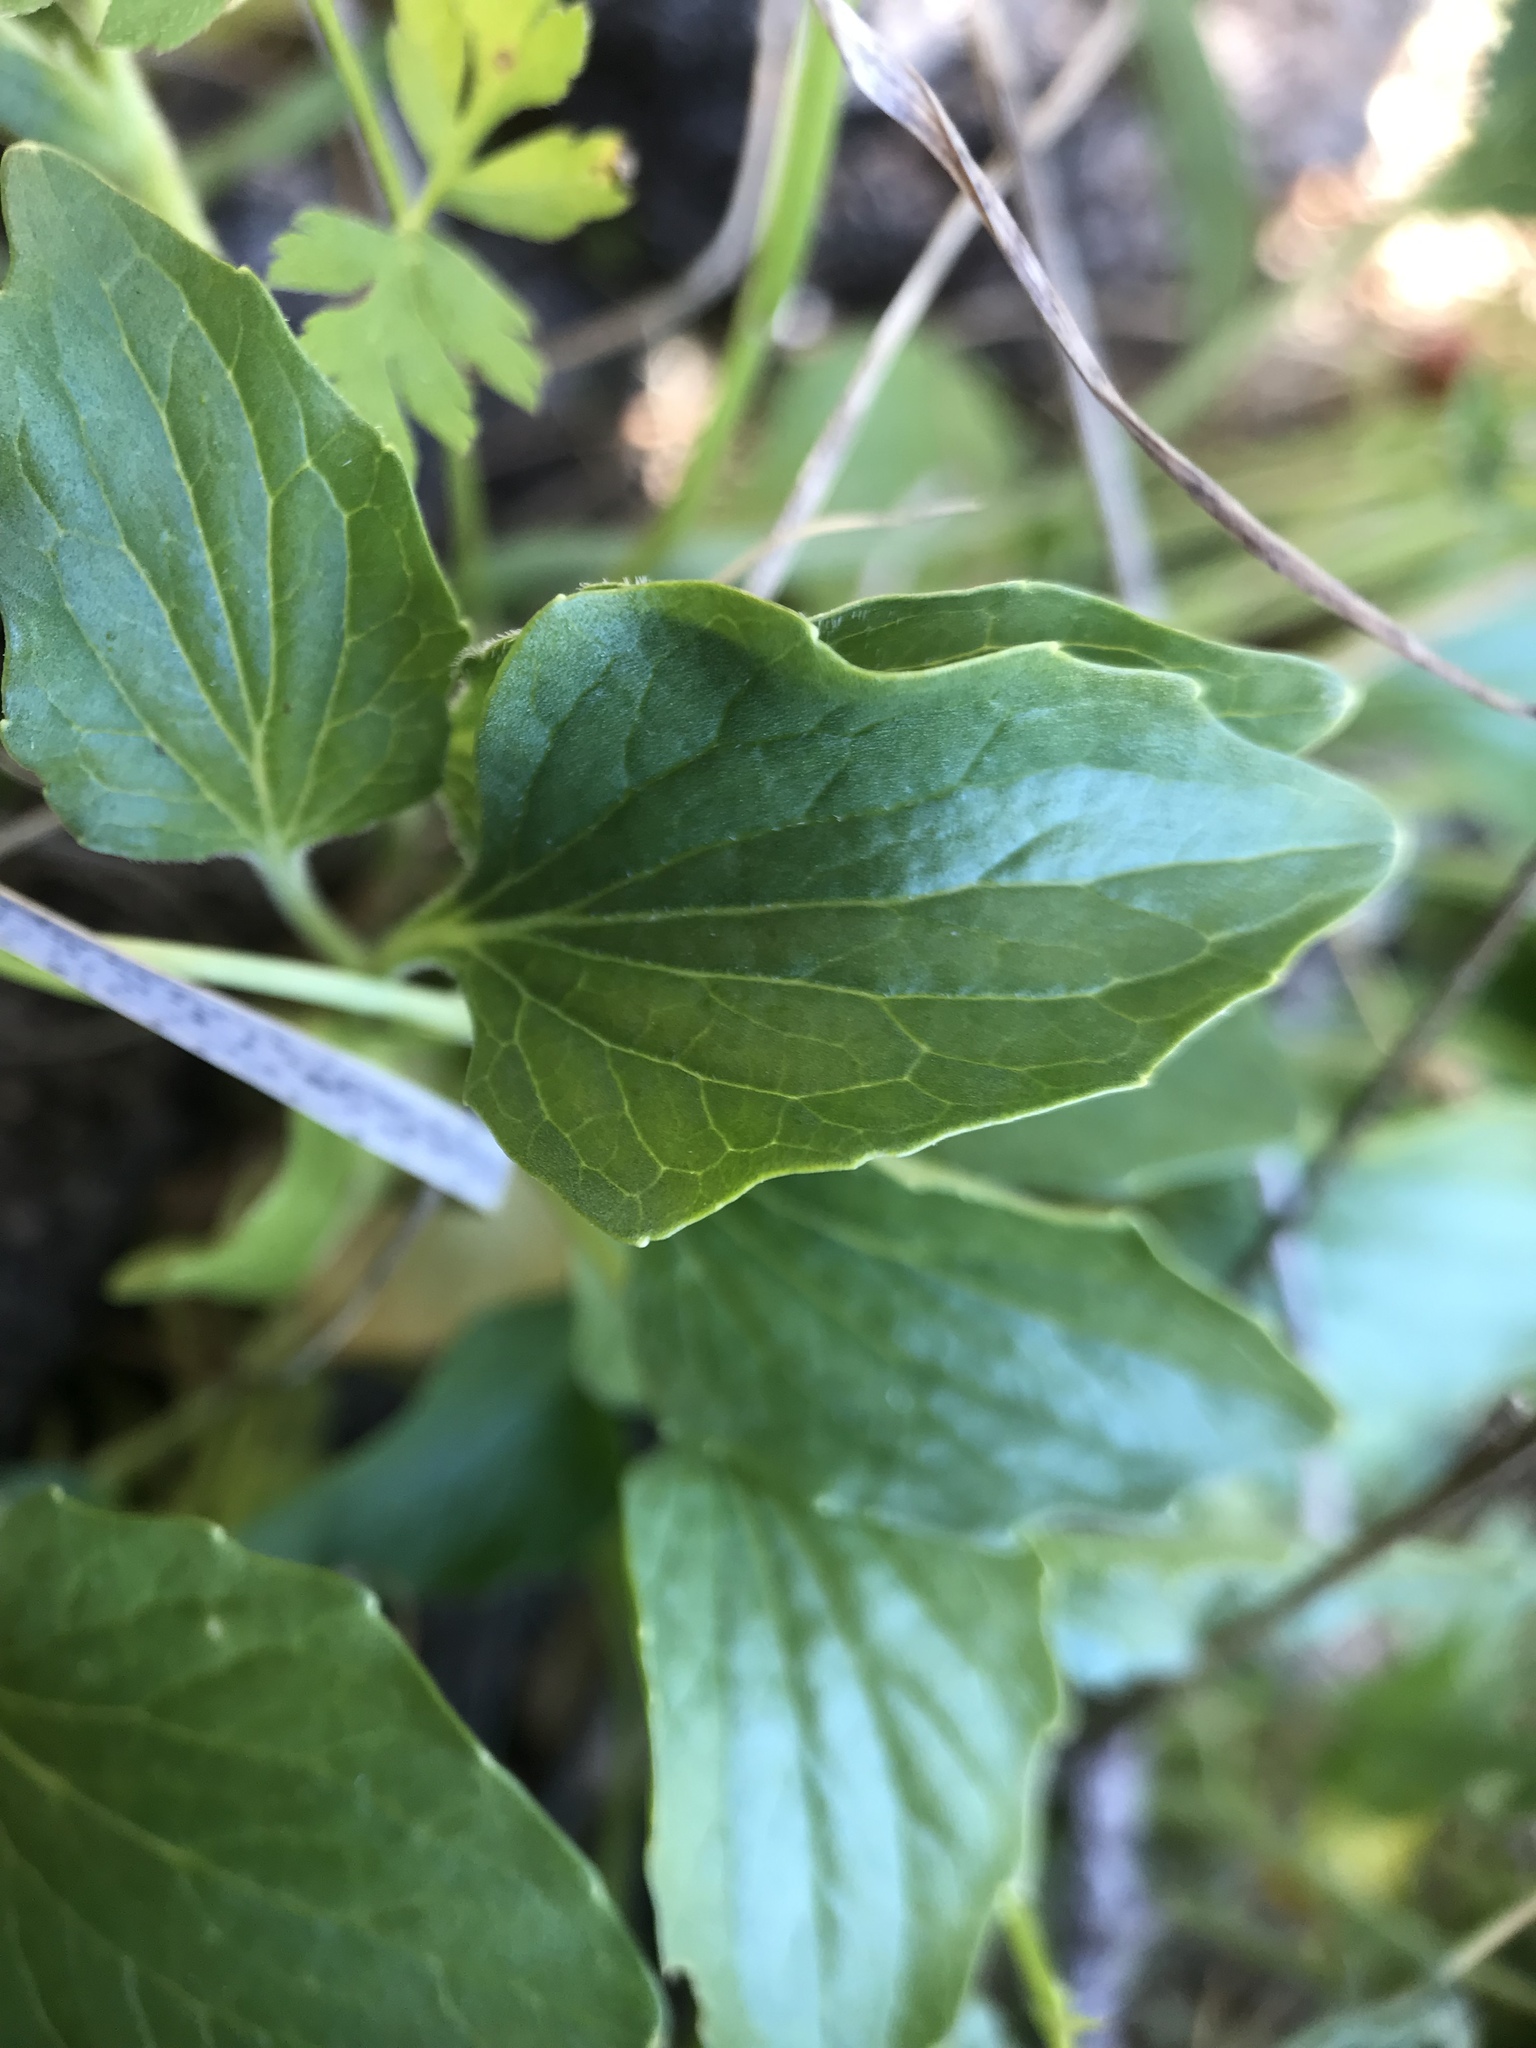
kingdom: Plantae
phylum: Tracheophyta
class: Magnoliopsida
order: Malpighiales
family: Violaceae
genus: Viola
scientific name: Viola purpurea
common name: Pine violet
